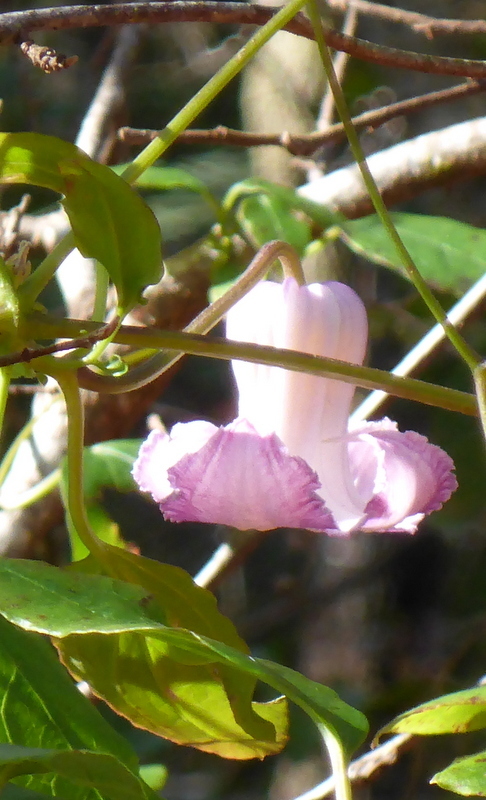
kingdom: Plantae
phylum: Tracheophyta
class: Magnoliopsida
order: Ranunculales
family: Ranunculaceae
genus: Clematis
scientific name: Clematis crispa
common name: Curly clematis
